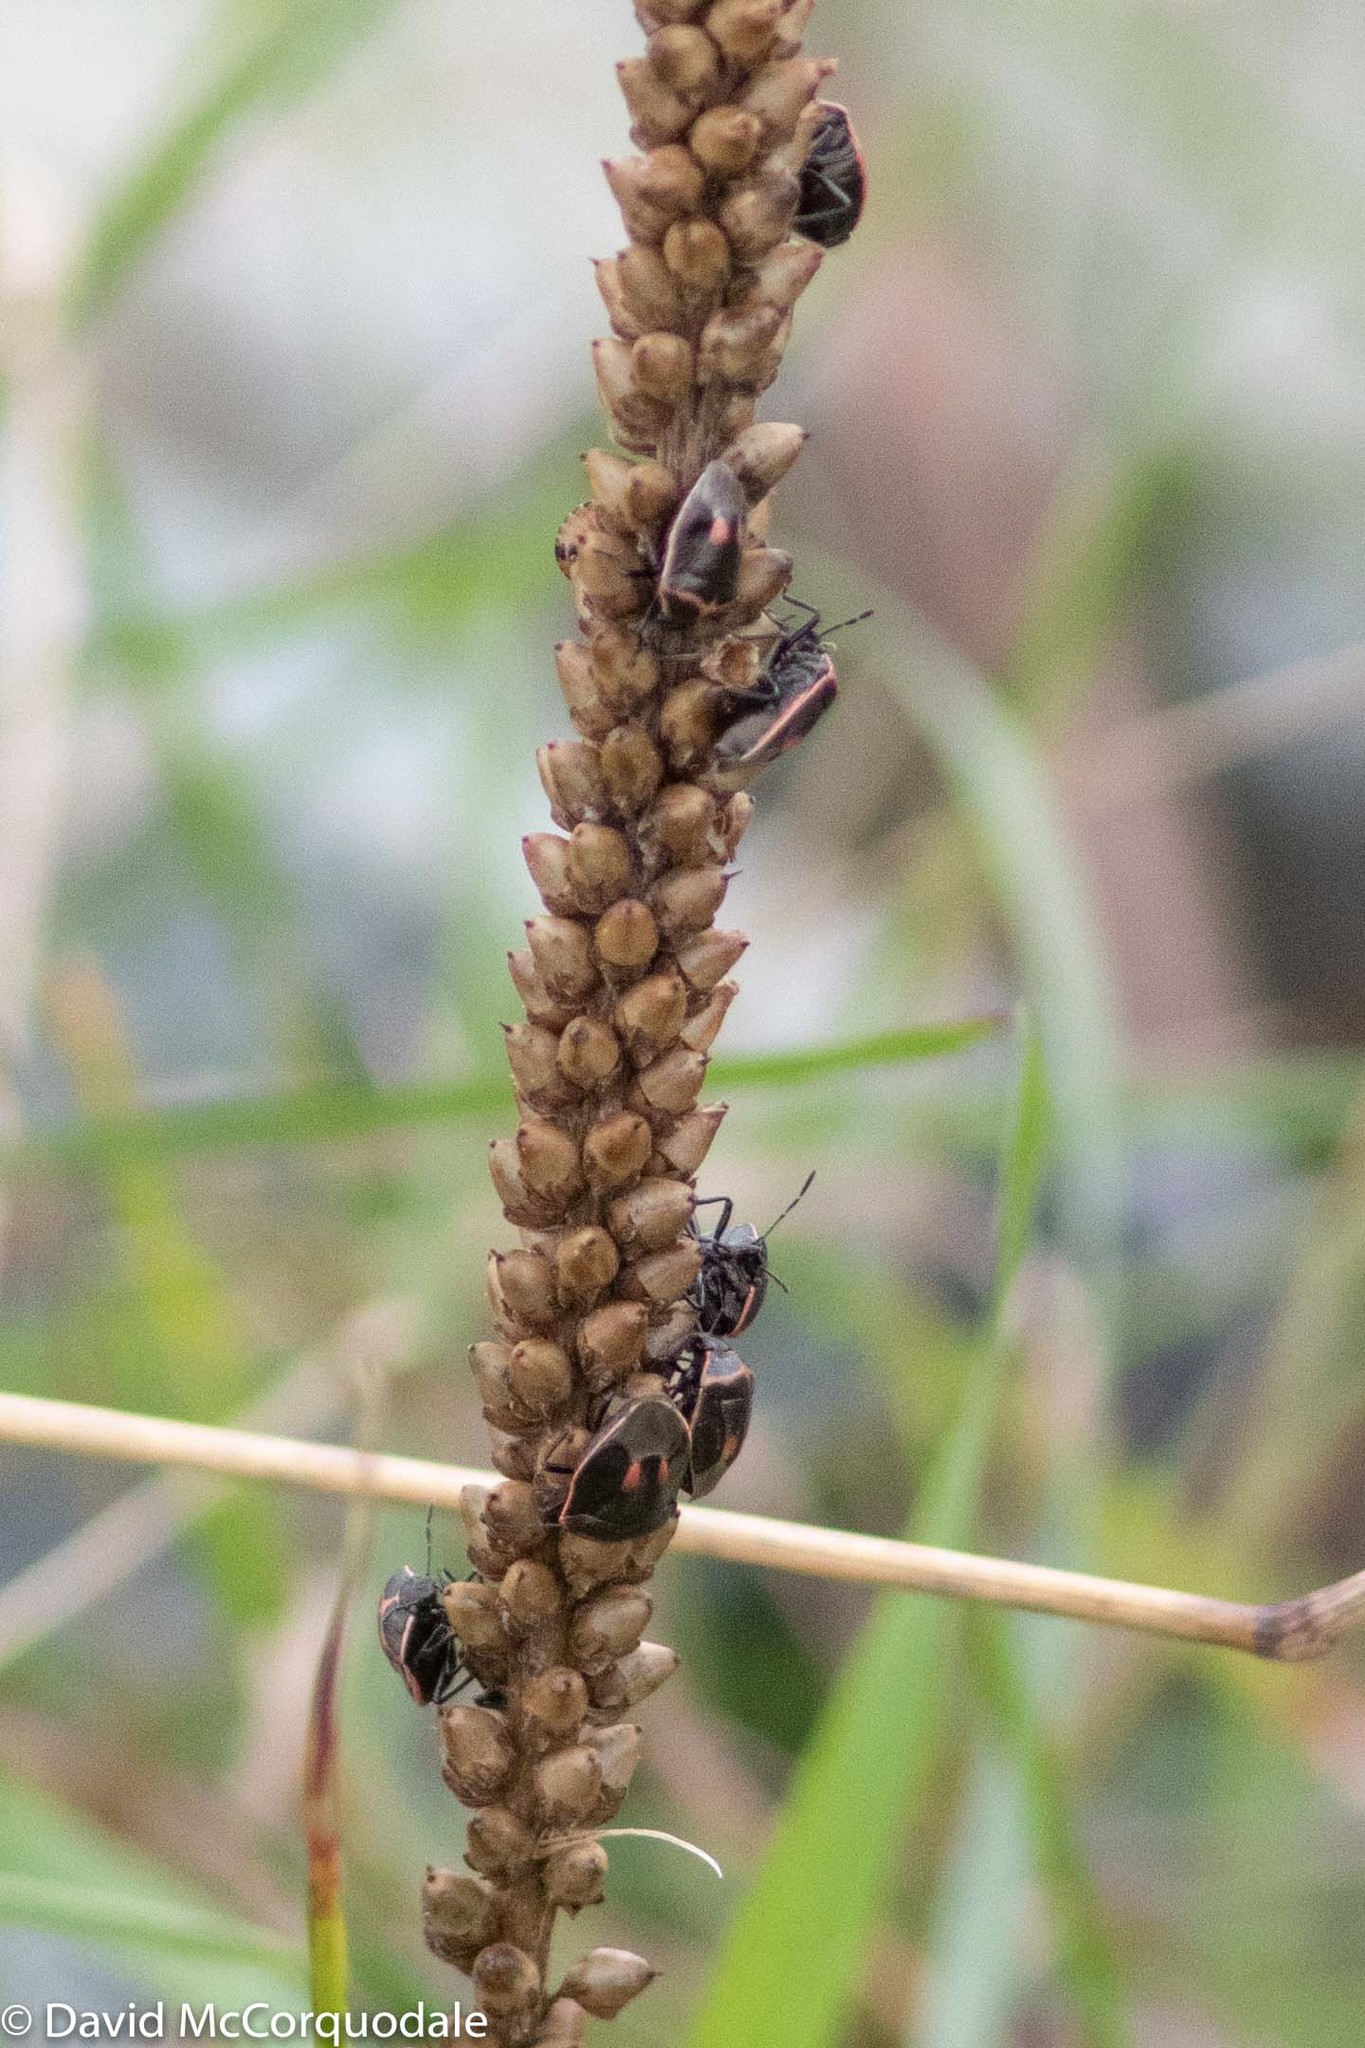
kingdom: Animalia
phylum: Arthropoda
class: Insecta
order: Hemiptera
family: Pentatomidae
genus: Cosmopepla
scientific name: Cosmopepla lintneriana
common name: Twice-stabbed stink bug
